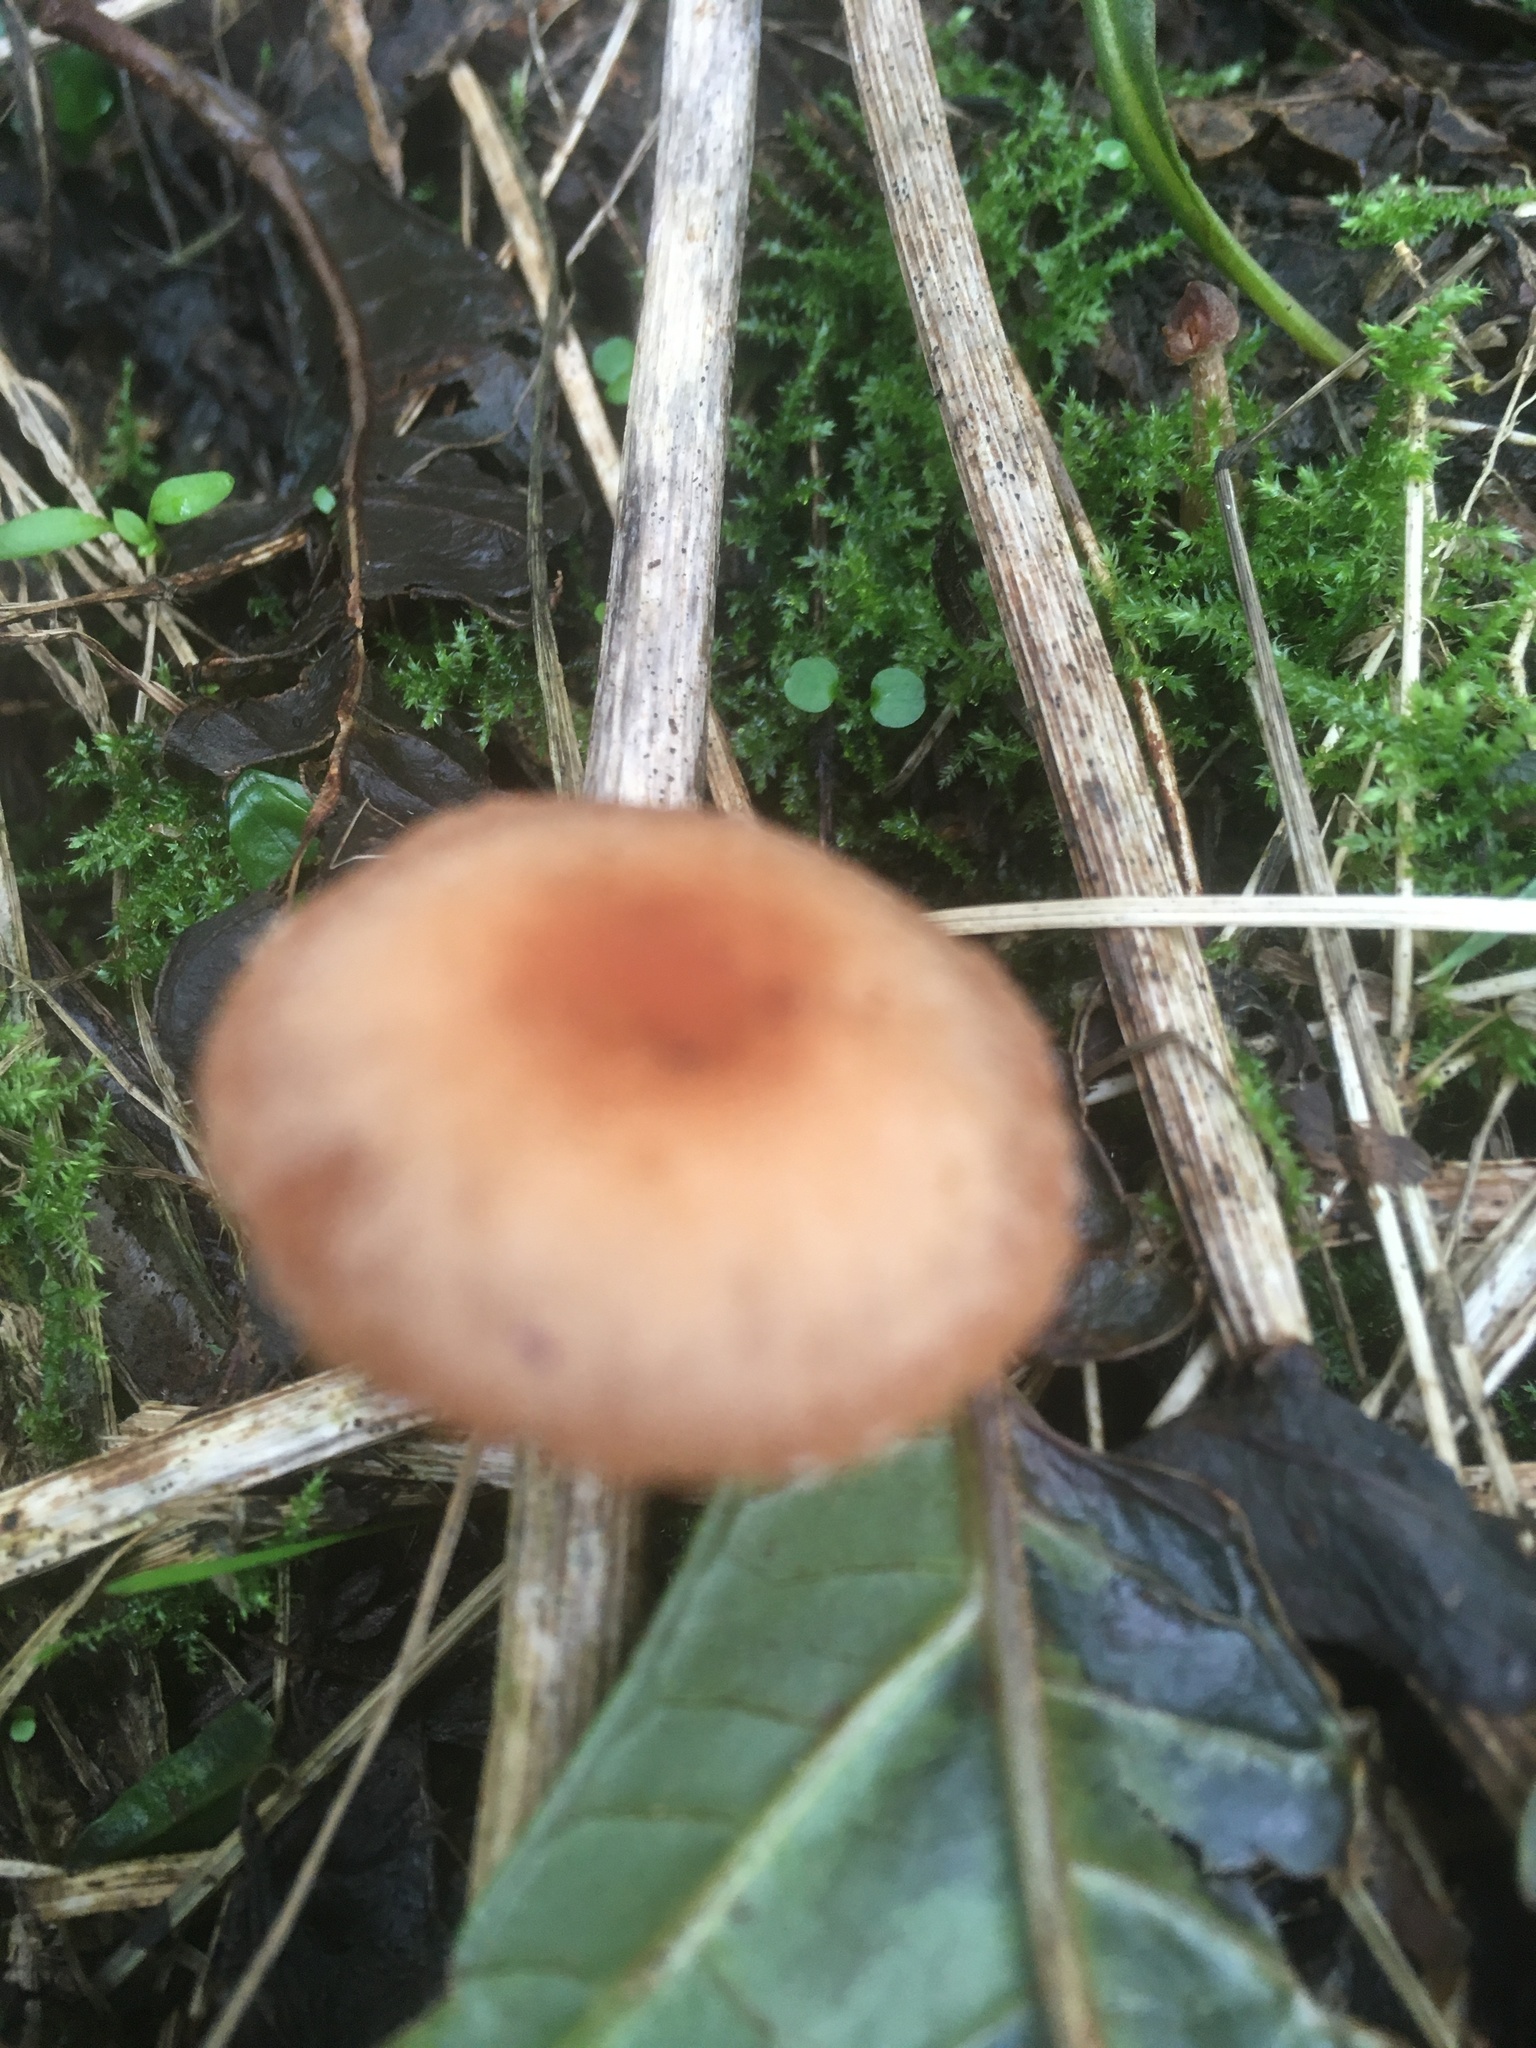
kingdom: Fungi
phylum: Basidiomycota
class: Agaricomycetes
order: Agaricales
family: Tubariaceae
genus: Tubaria
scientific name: Tubaria furfuracea
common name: Scurfy twiglet
